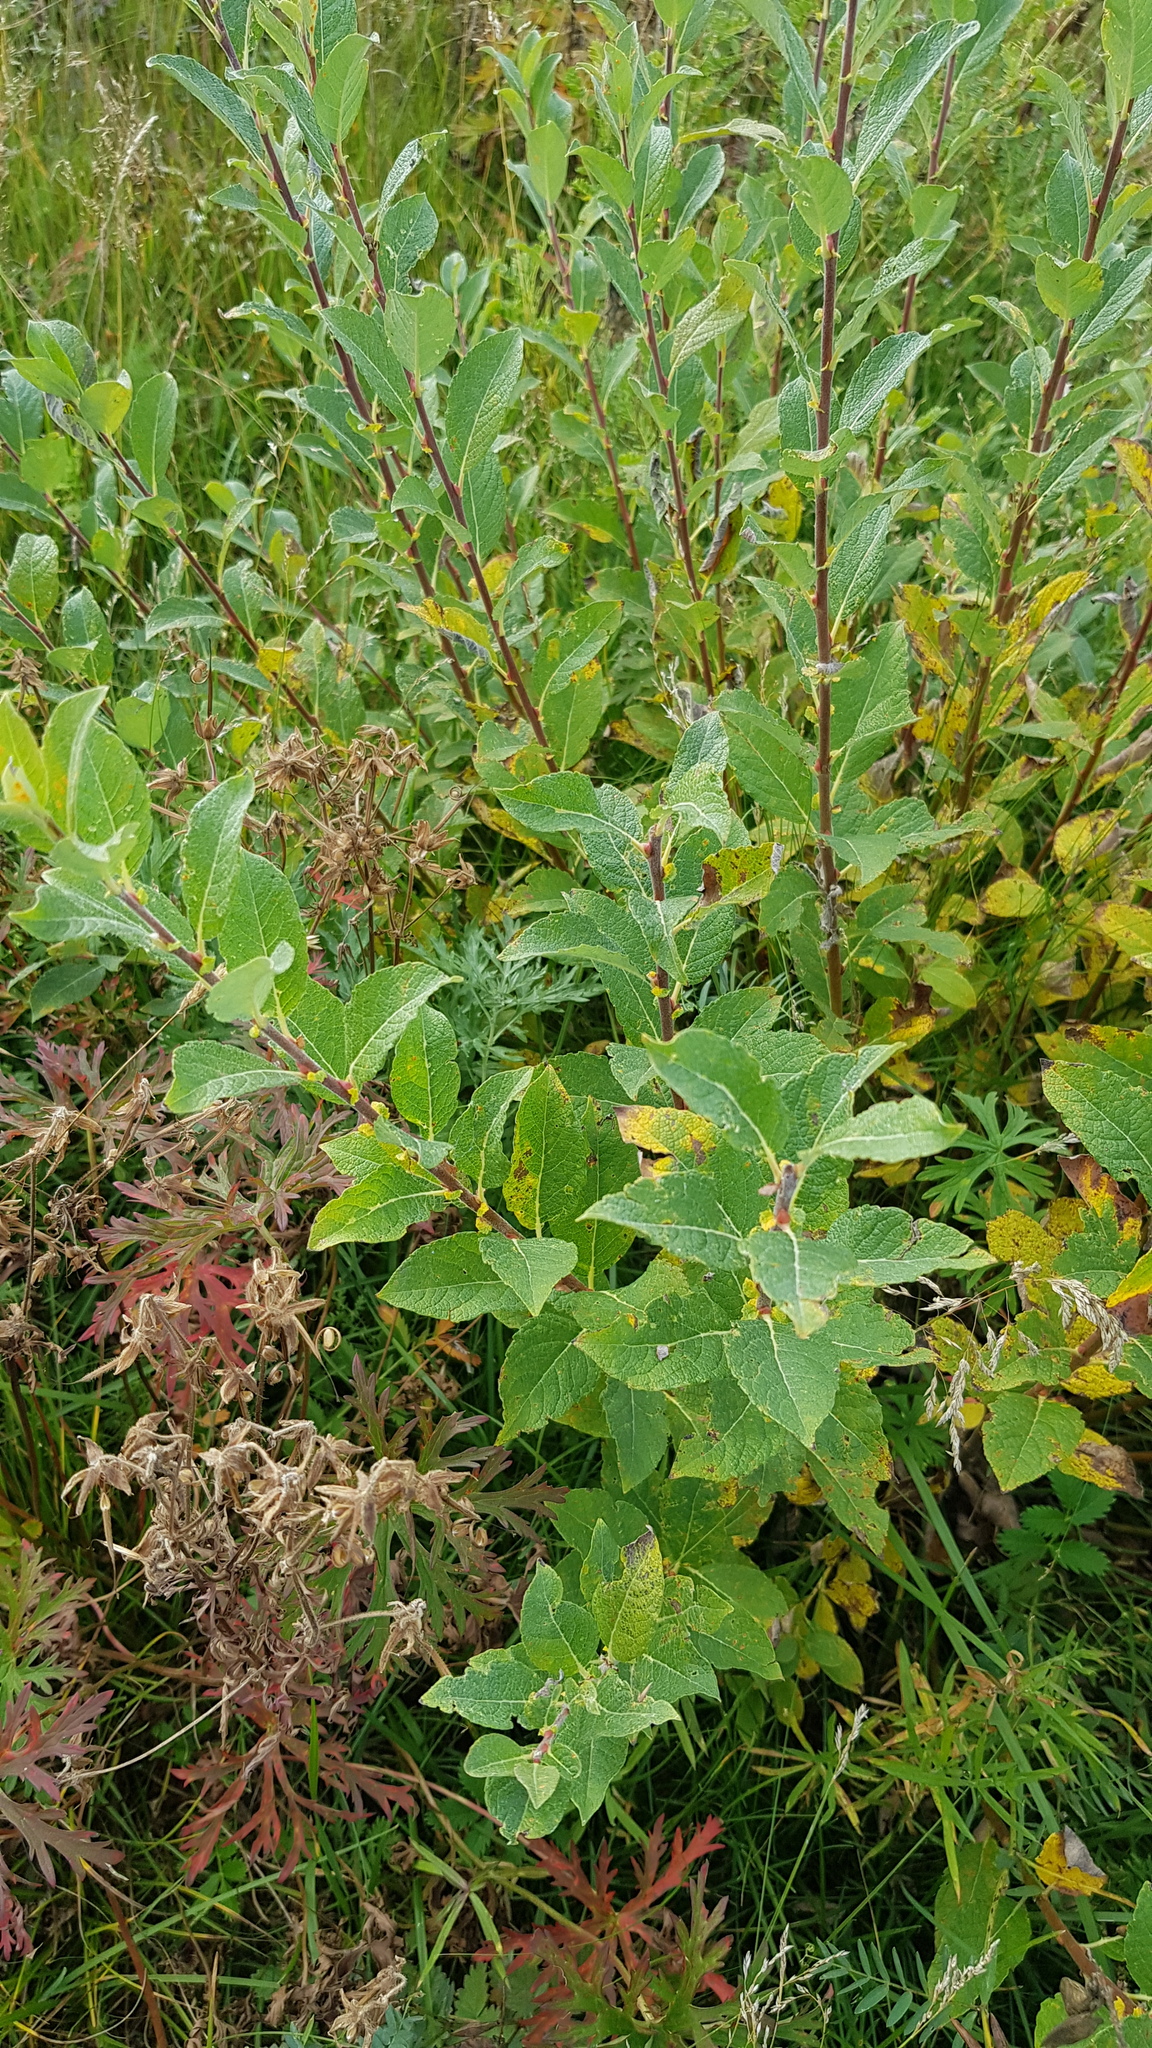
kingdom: Plantae
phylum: Tracheophyta
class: Magnoliopsida
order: Malpighiales
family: Salicaceae
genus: Salix
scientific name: Salix caprea
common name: Goat willow
